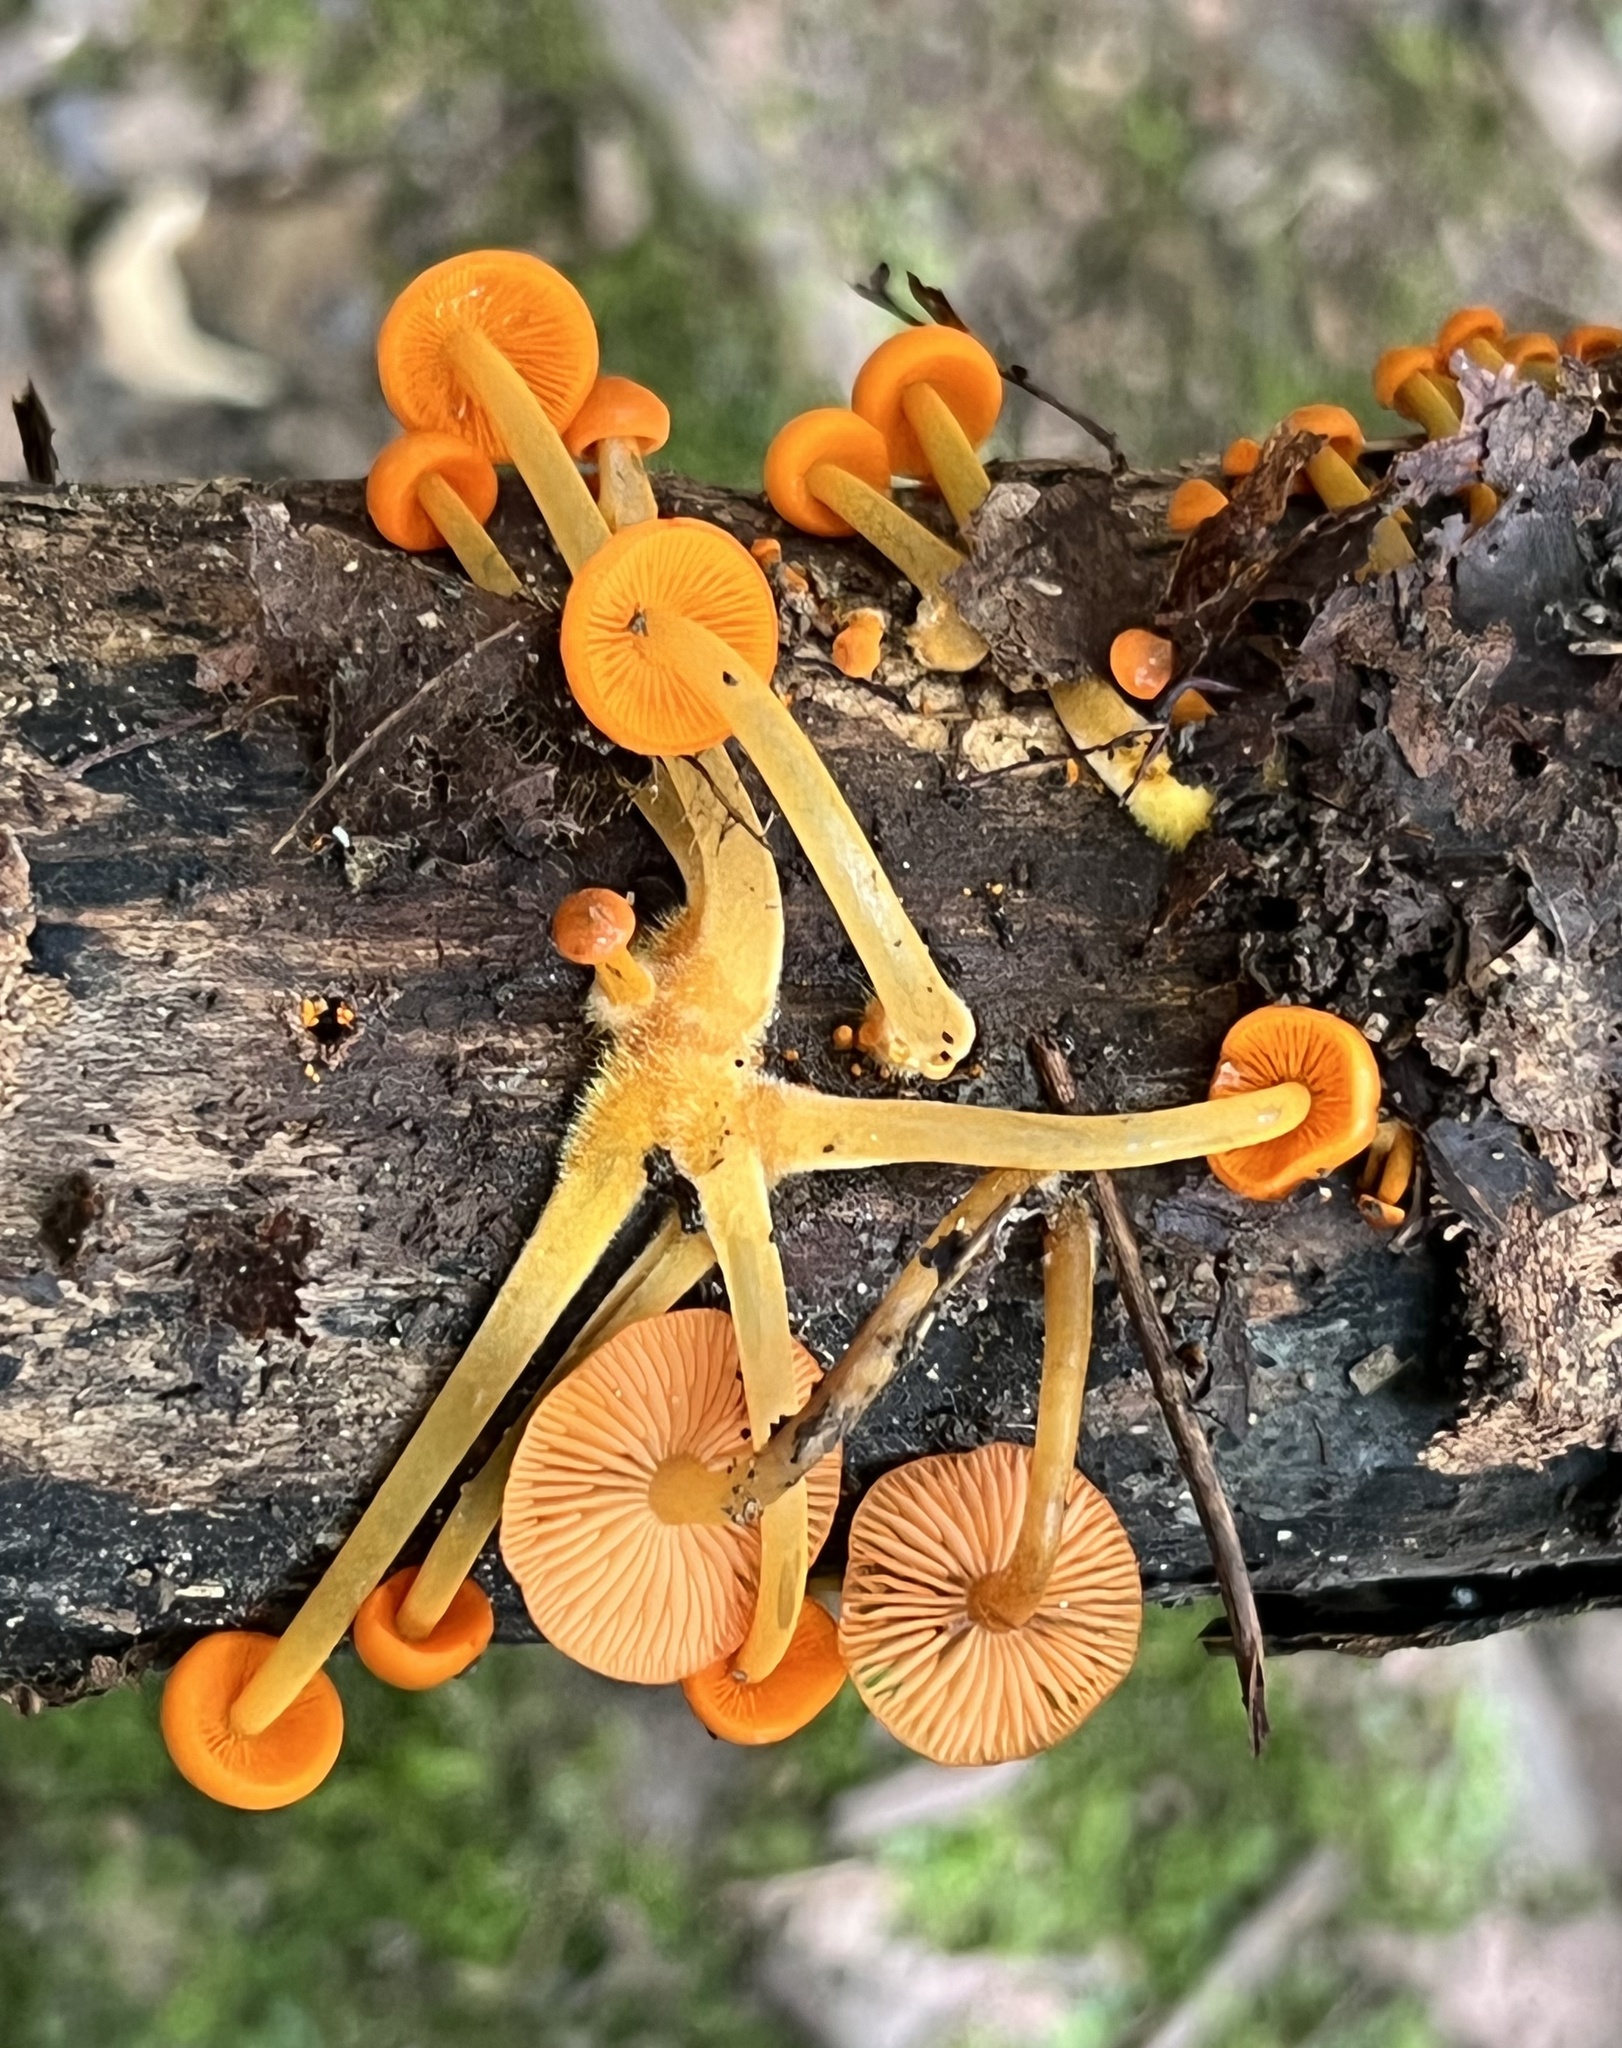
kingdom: Fungi
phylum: Basidiomycota
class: Agaricomycetes
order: Agaricales
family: Mycenaceae
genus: Mycena
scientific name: Mycena leaiana
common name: Orange mycena
